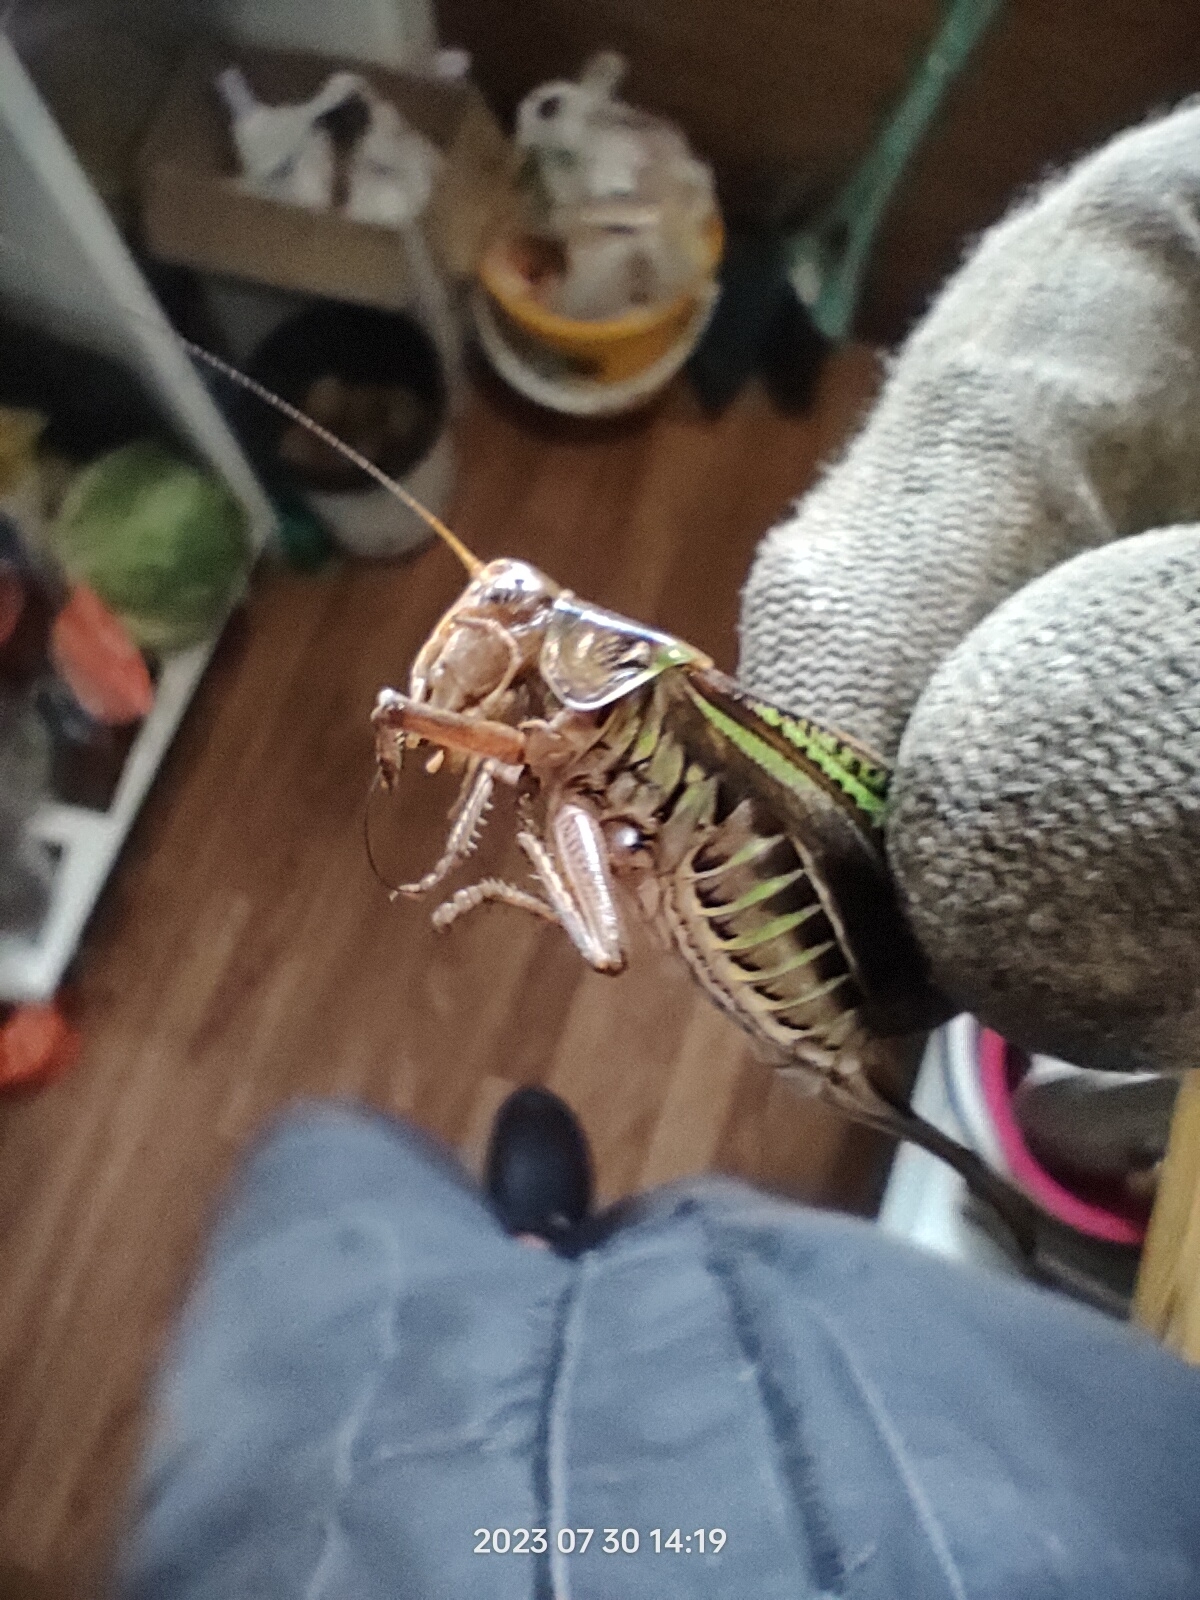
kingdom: Animalia
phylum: Arthropoda
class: Insecta
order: Orthoptera
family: Tettigoniidae
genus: Gampsocleis
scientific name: Gampsocleis sedakovii
